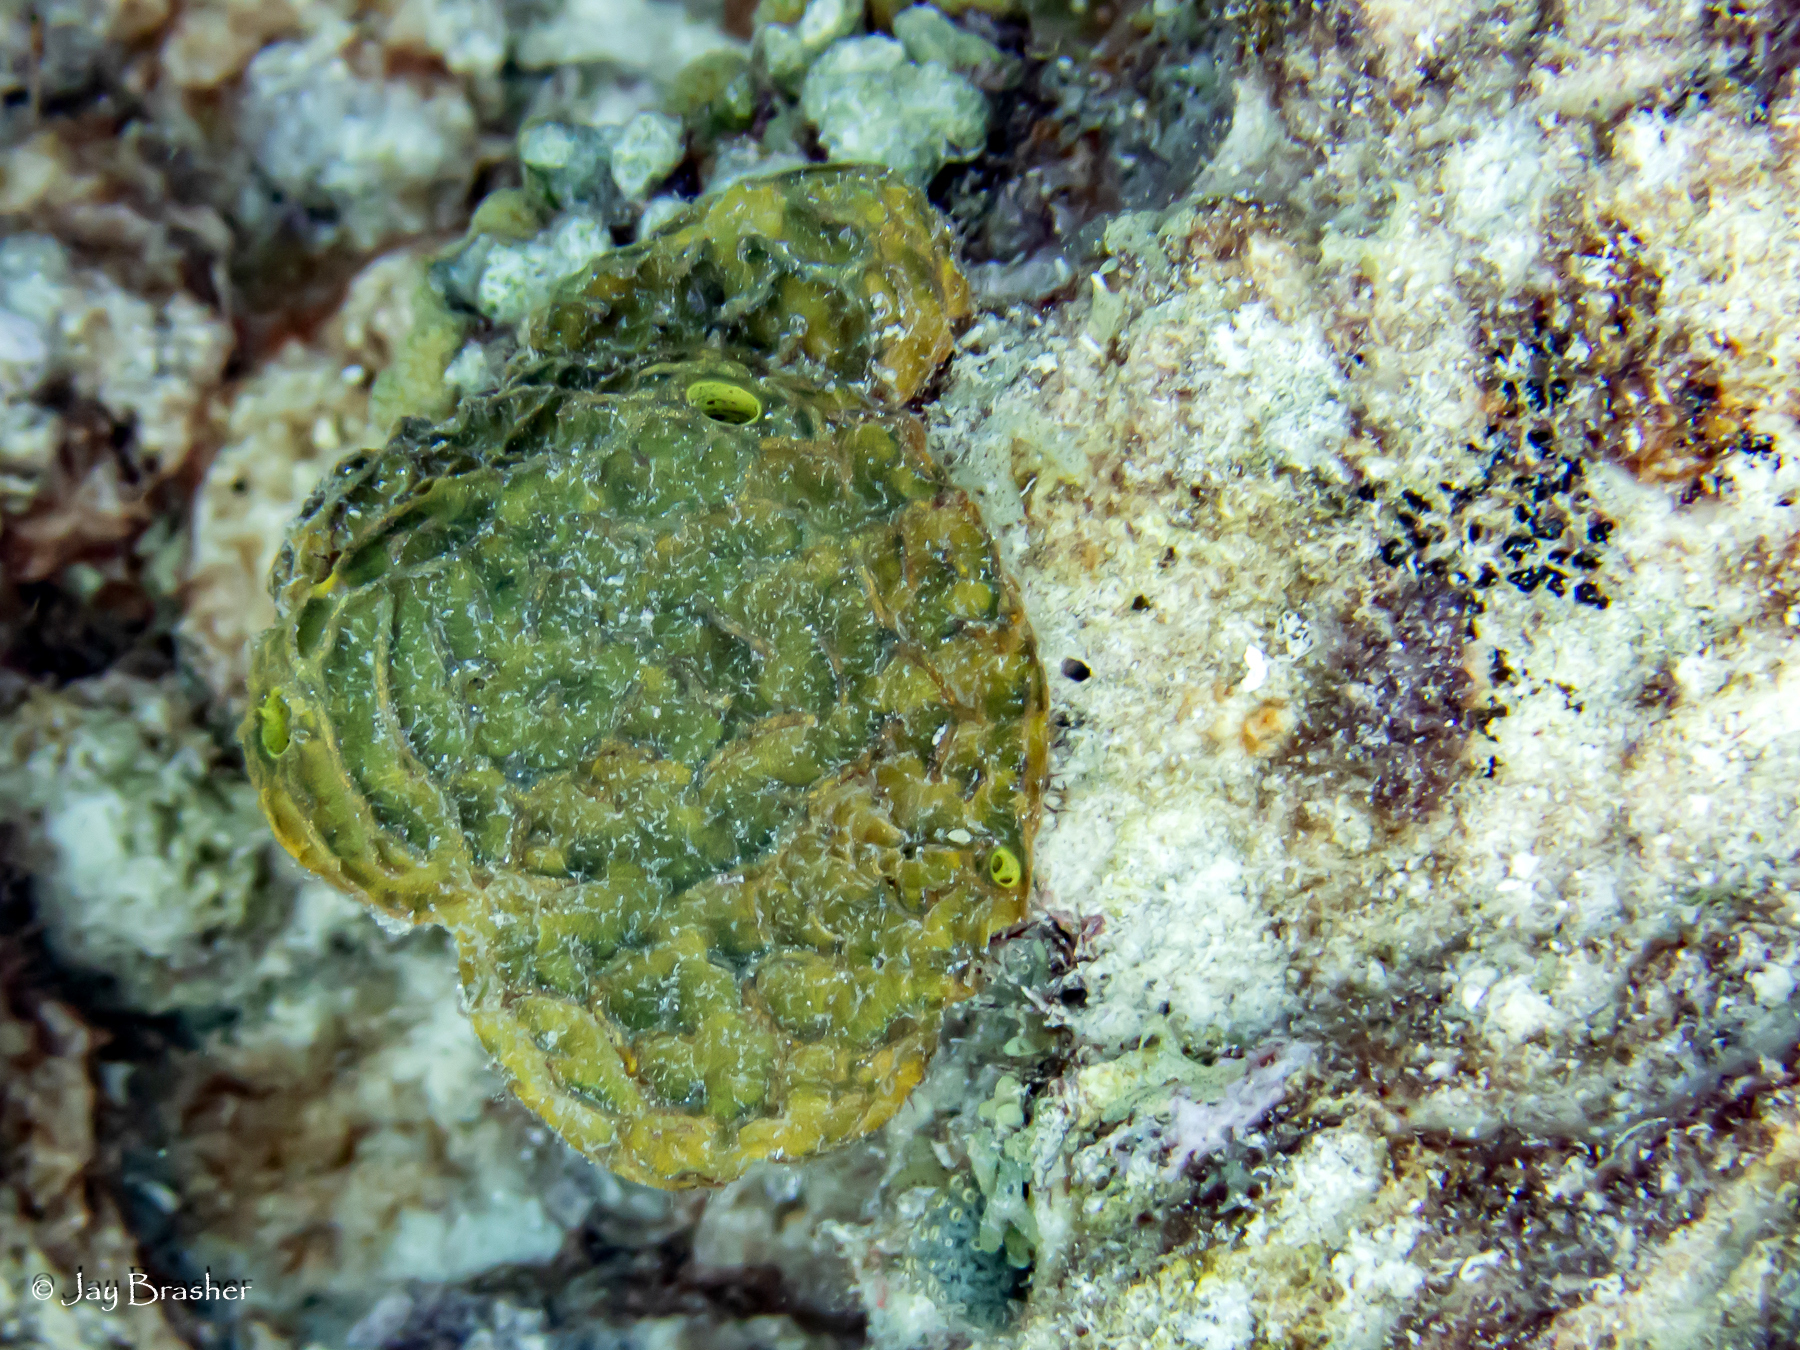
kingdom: Animalia
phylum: Porifera
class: Demospongiae
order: Verongiida
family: Aplysinidae
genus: Verongula
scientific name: Verongula rigida
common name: Pitted sponge
